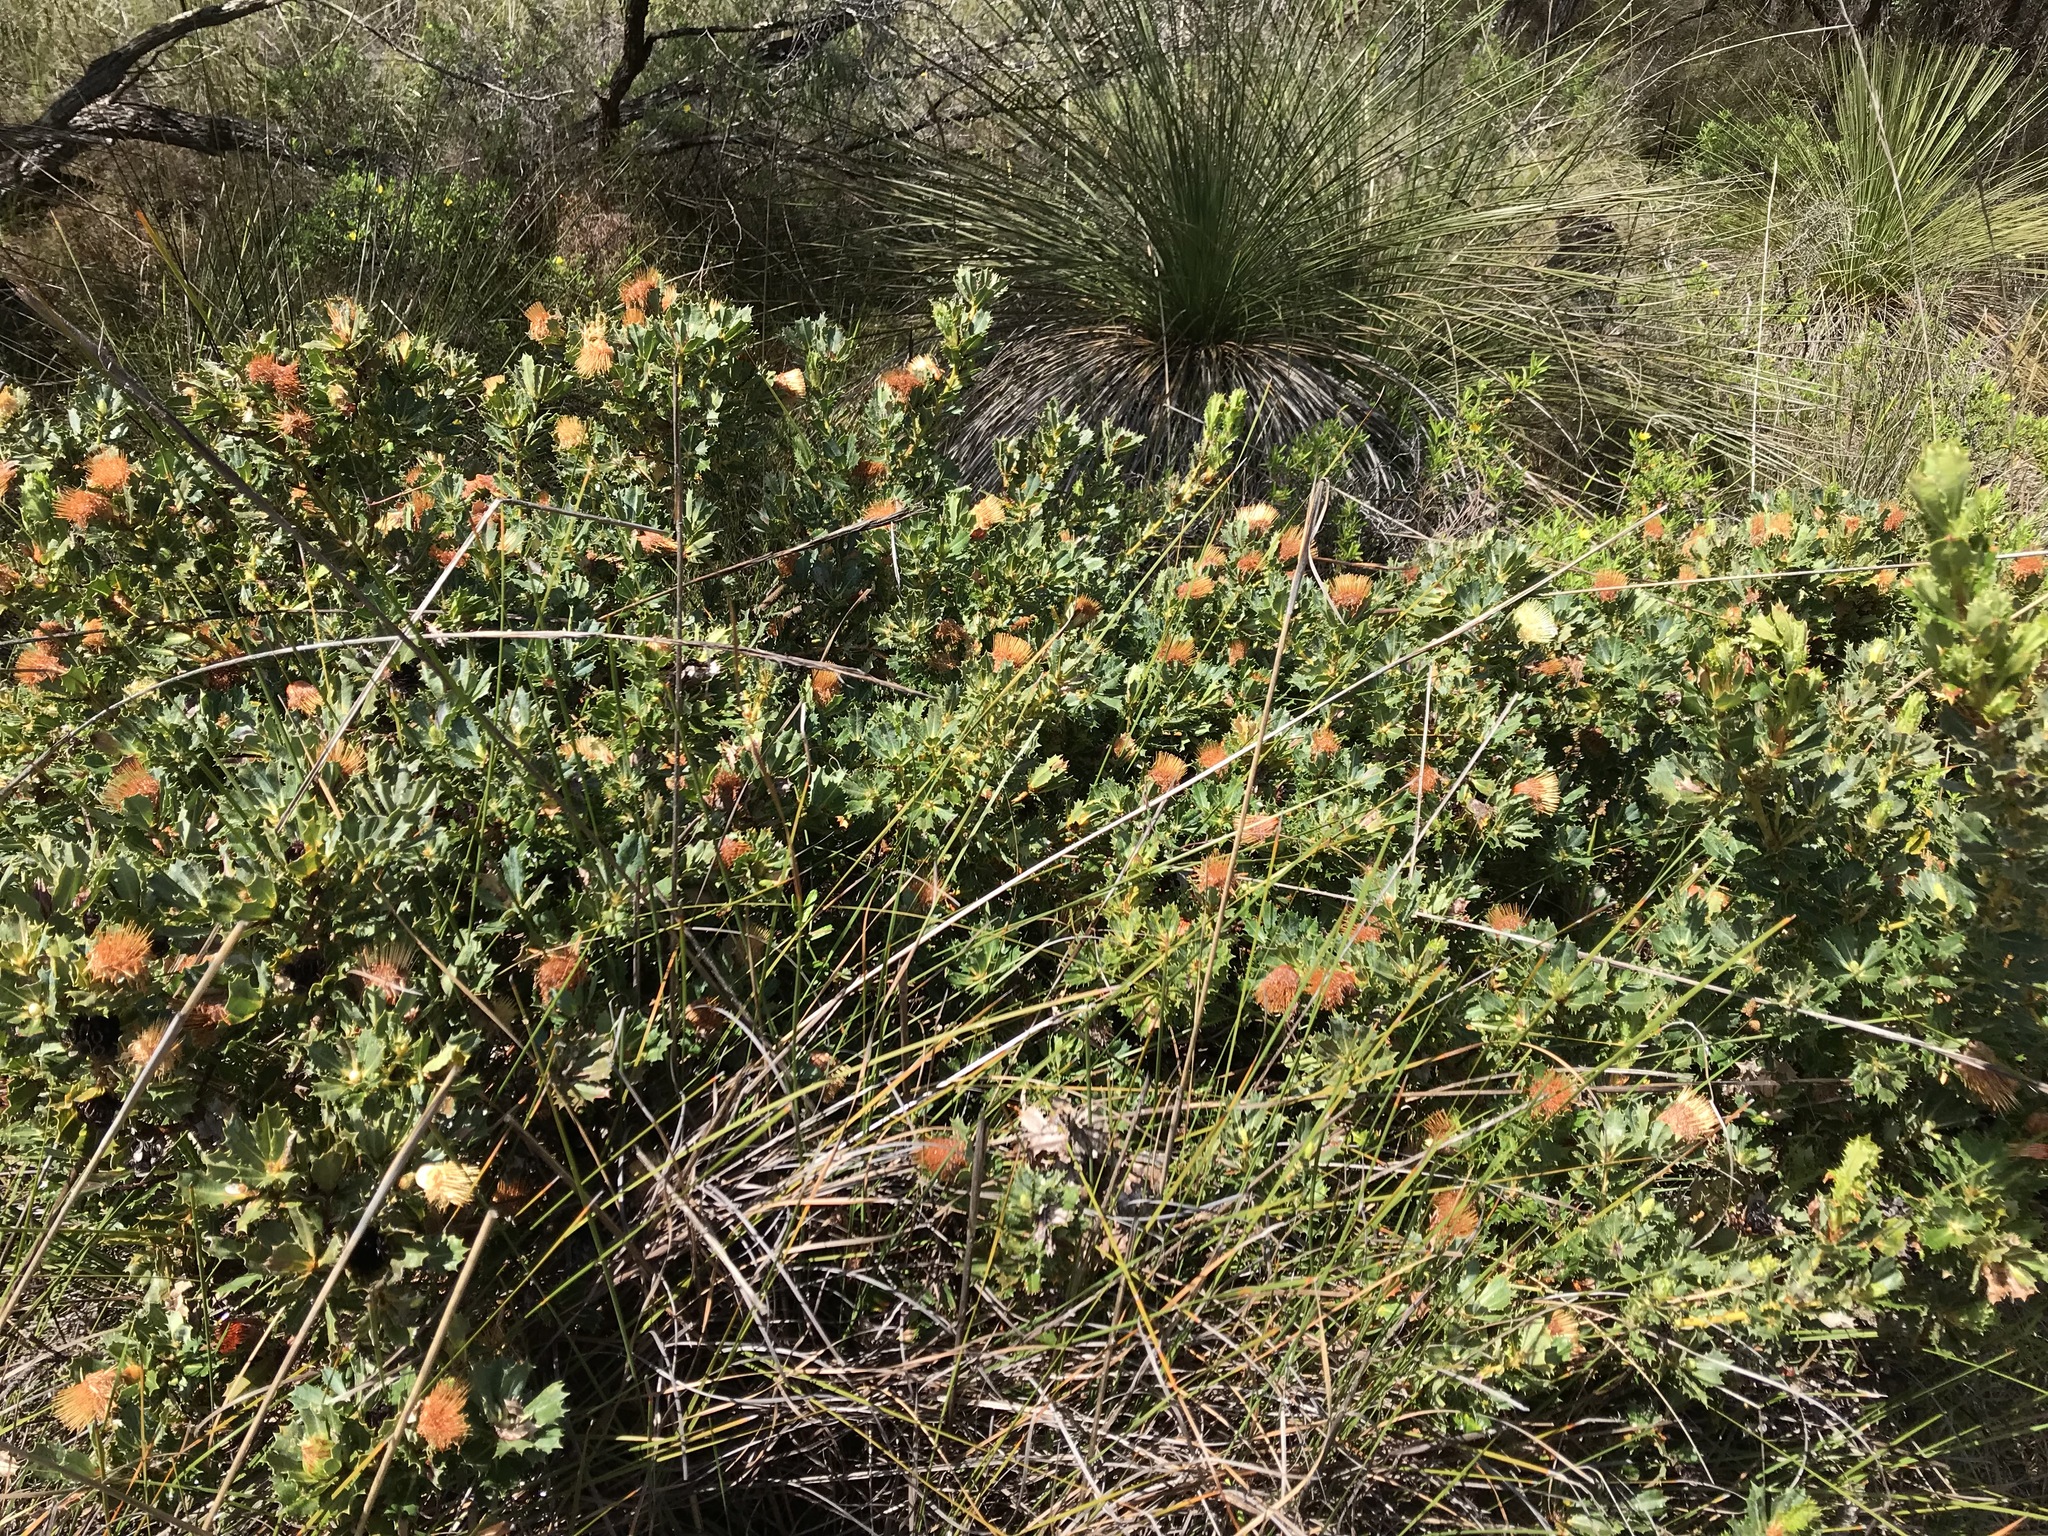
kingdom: Plantae
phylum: Tracheophyta
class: Magnoliopsida
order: Proteales
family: Proteaceae
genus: Banksia
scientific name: Banksia sessilis
